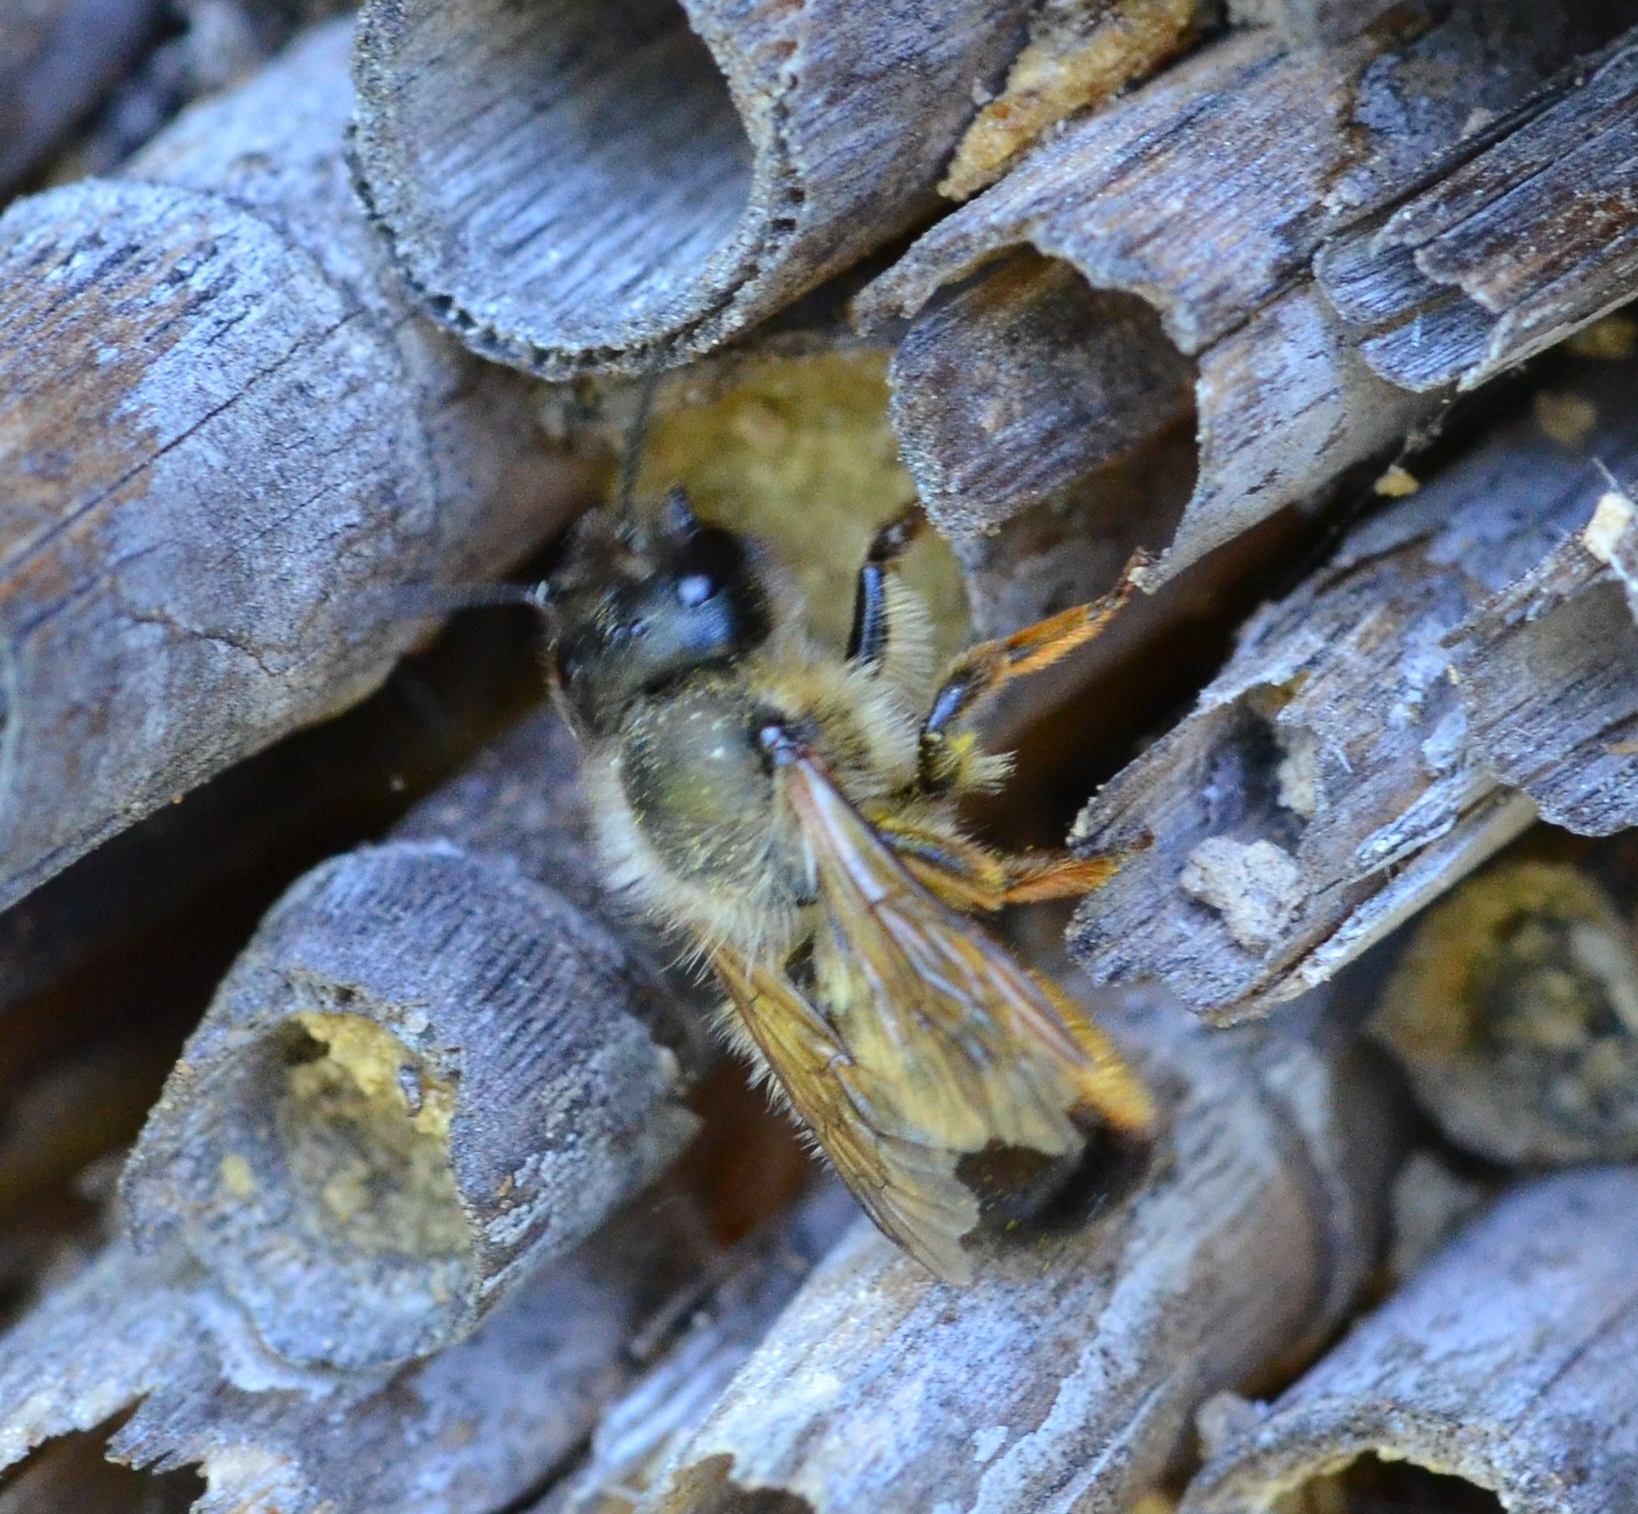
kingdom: Animalia
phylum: Arthropoda
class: Insecta
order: Hymenoptera
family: Megachilidae
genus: Osmia
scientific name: Osmia bicornis
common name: Red mason bee
